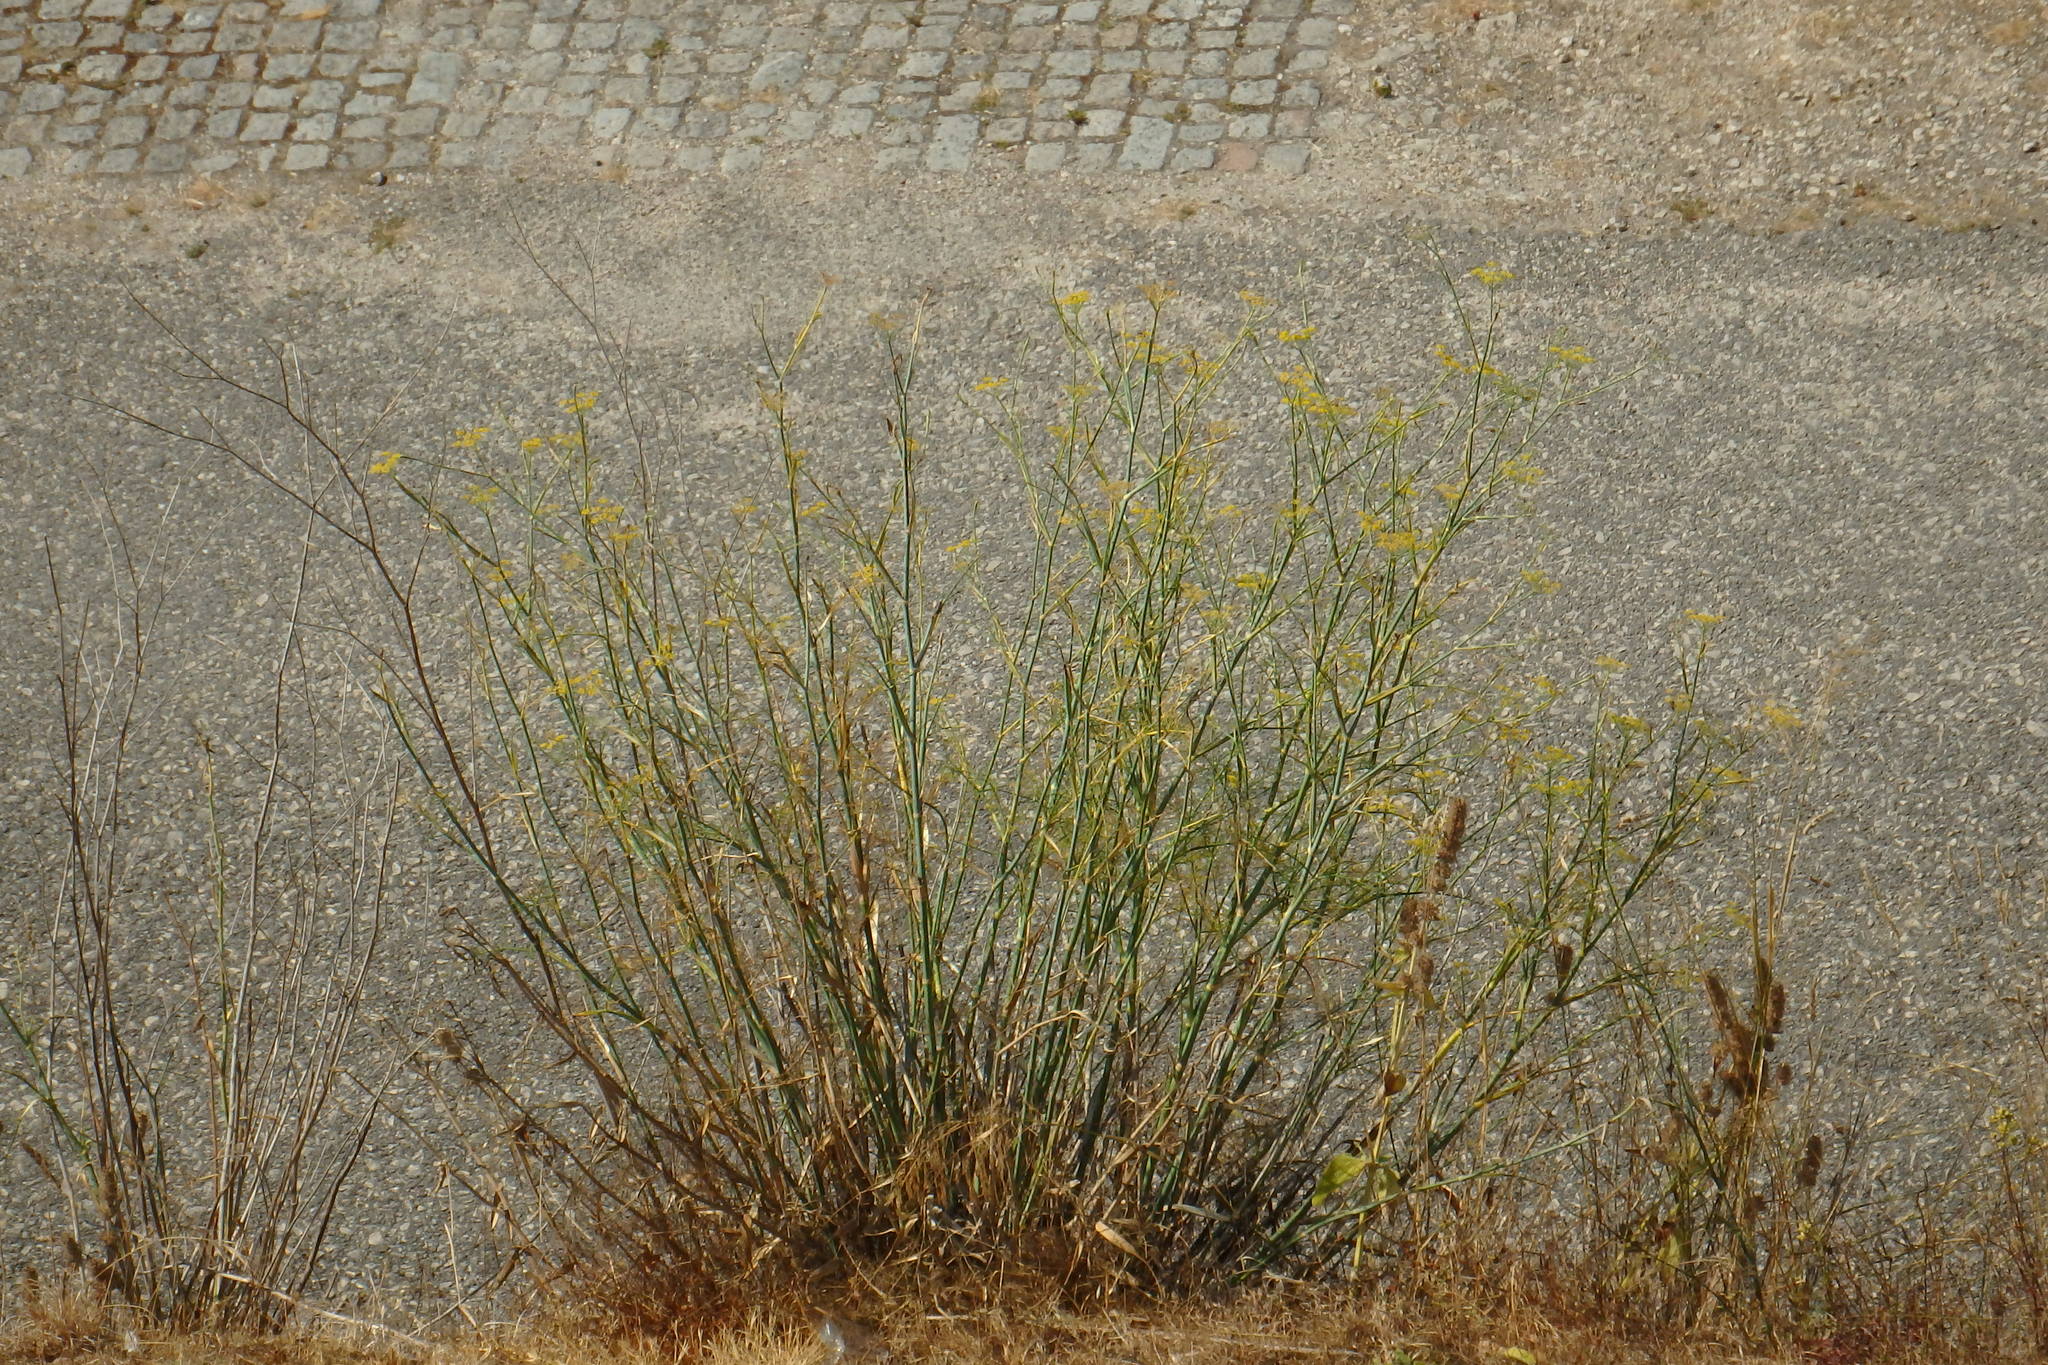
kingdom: Plantae
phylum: Tracheophyta
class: Magnoliopsida
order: Apiales
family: Apiaceae
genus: Foeniculum
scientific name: Foeniculum vulgare
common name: Fennel
